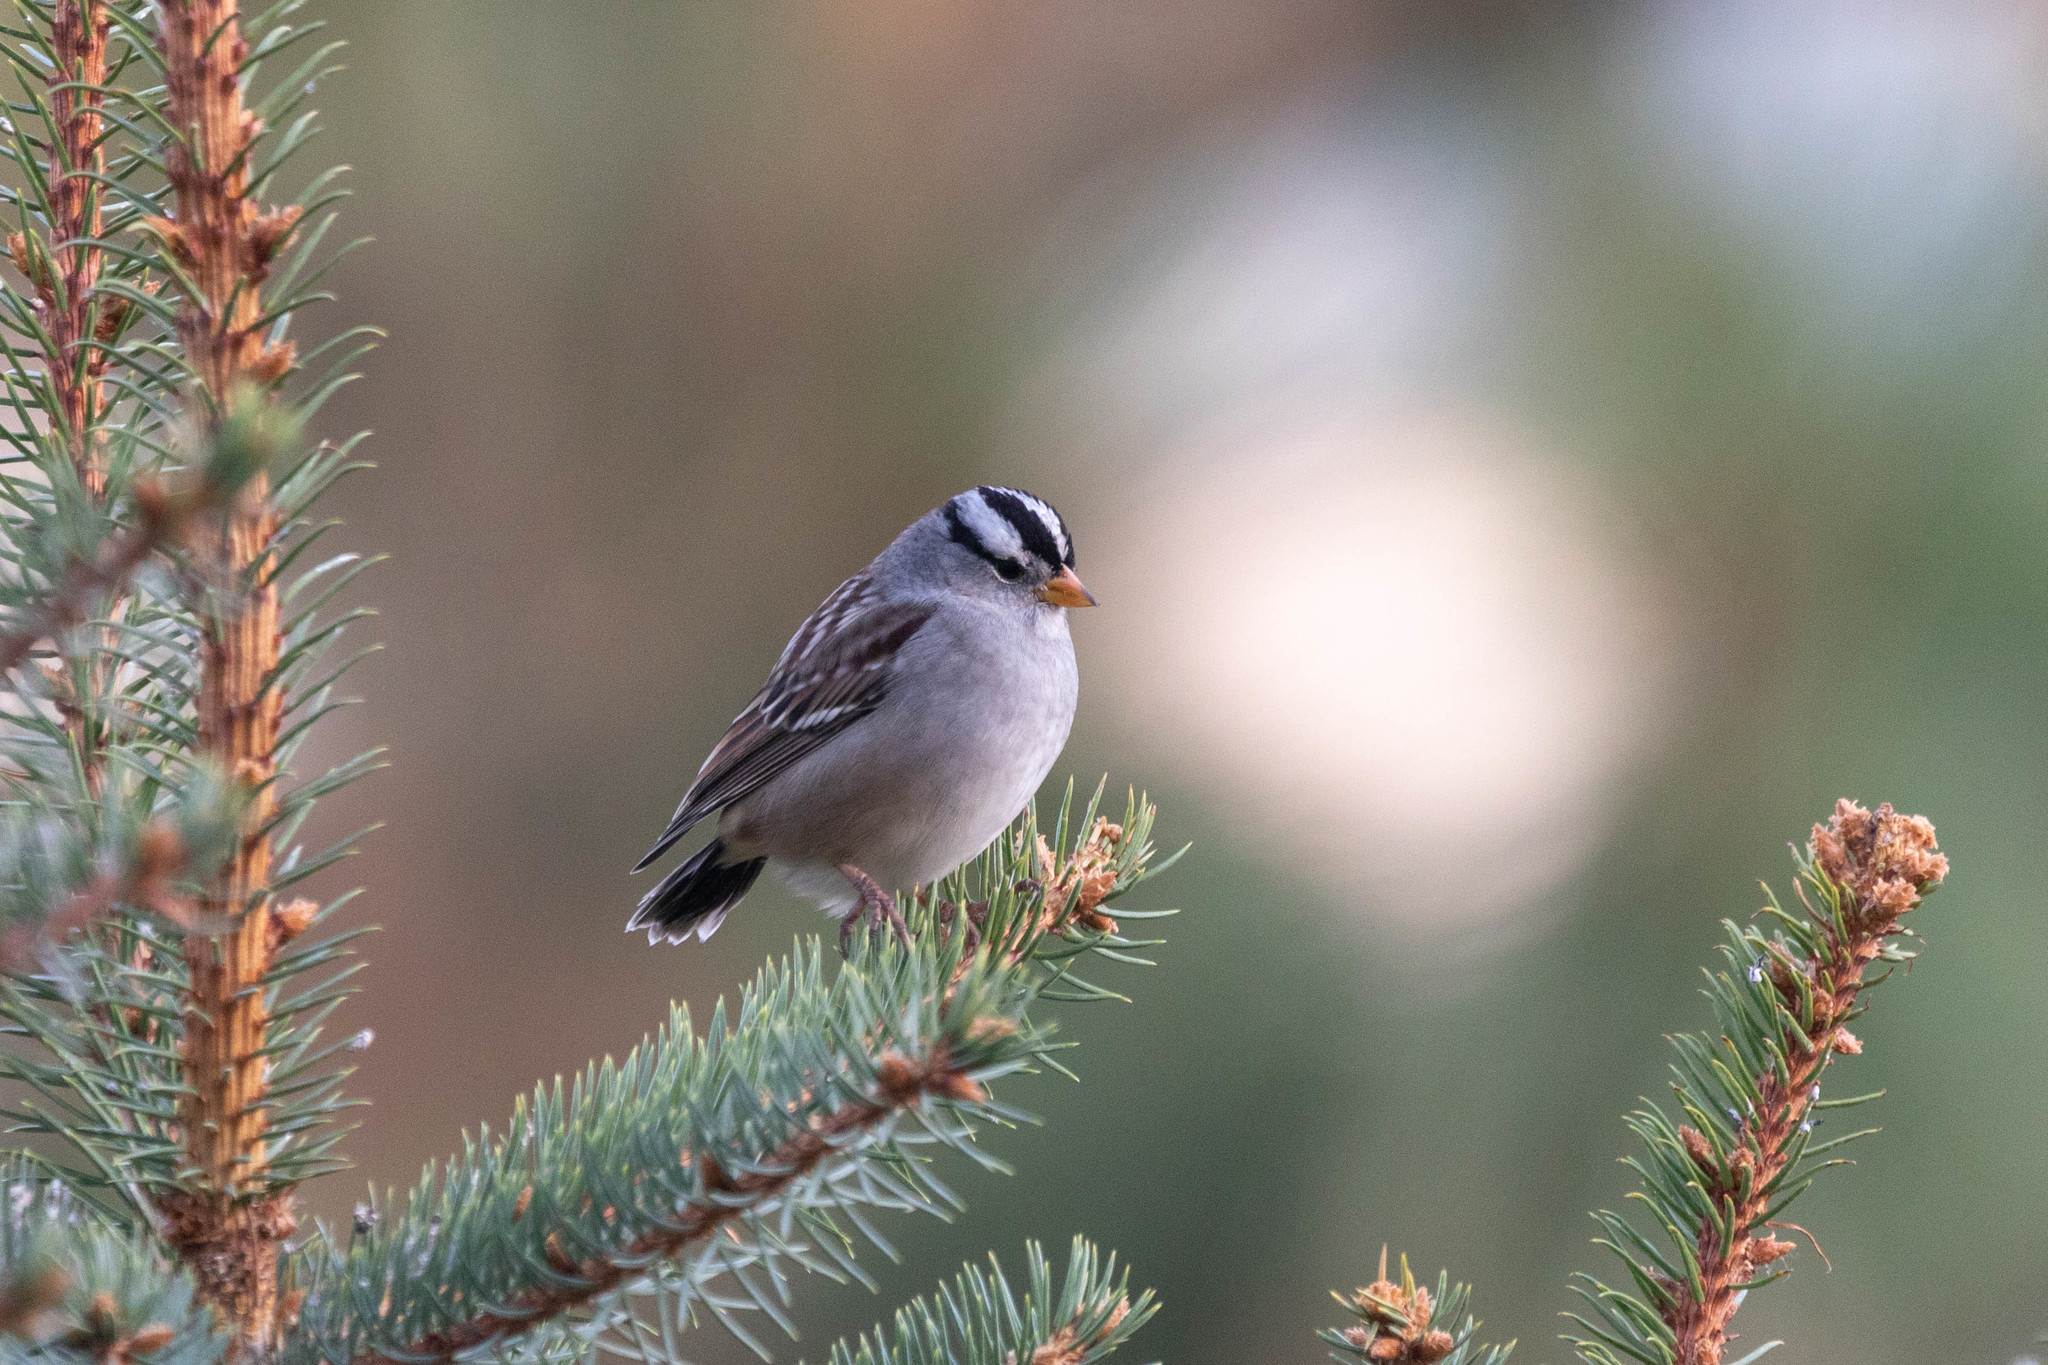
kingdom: Animalia
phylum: Chordata
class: Aves
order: Passeriformes
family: Passerellidae
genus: Zonotrichia
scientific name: Zonotrichia leucophrys
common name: White-crowned sparrow
